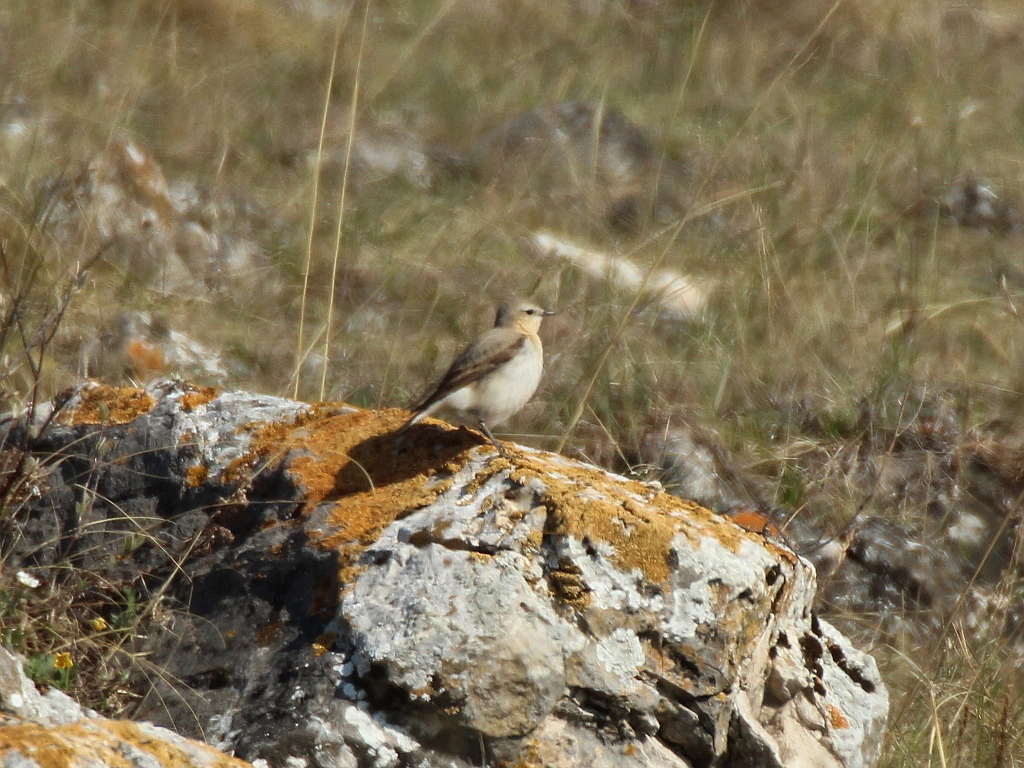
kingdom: Animalia
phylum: Chordata
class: Aves
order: Passeriformes
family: Muscicapidae
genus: Oenanthe
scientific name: Oenanthe oenanthe
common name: Northern wheatear
